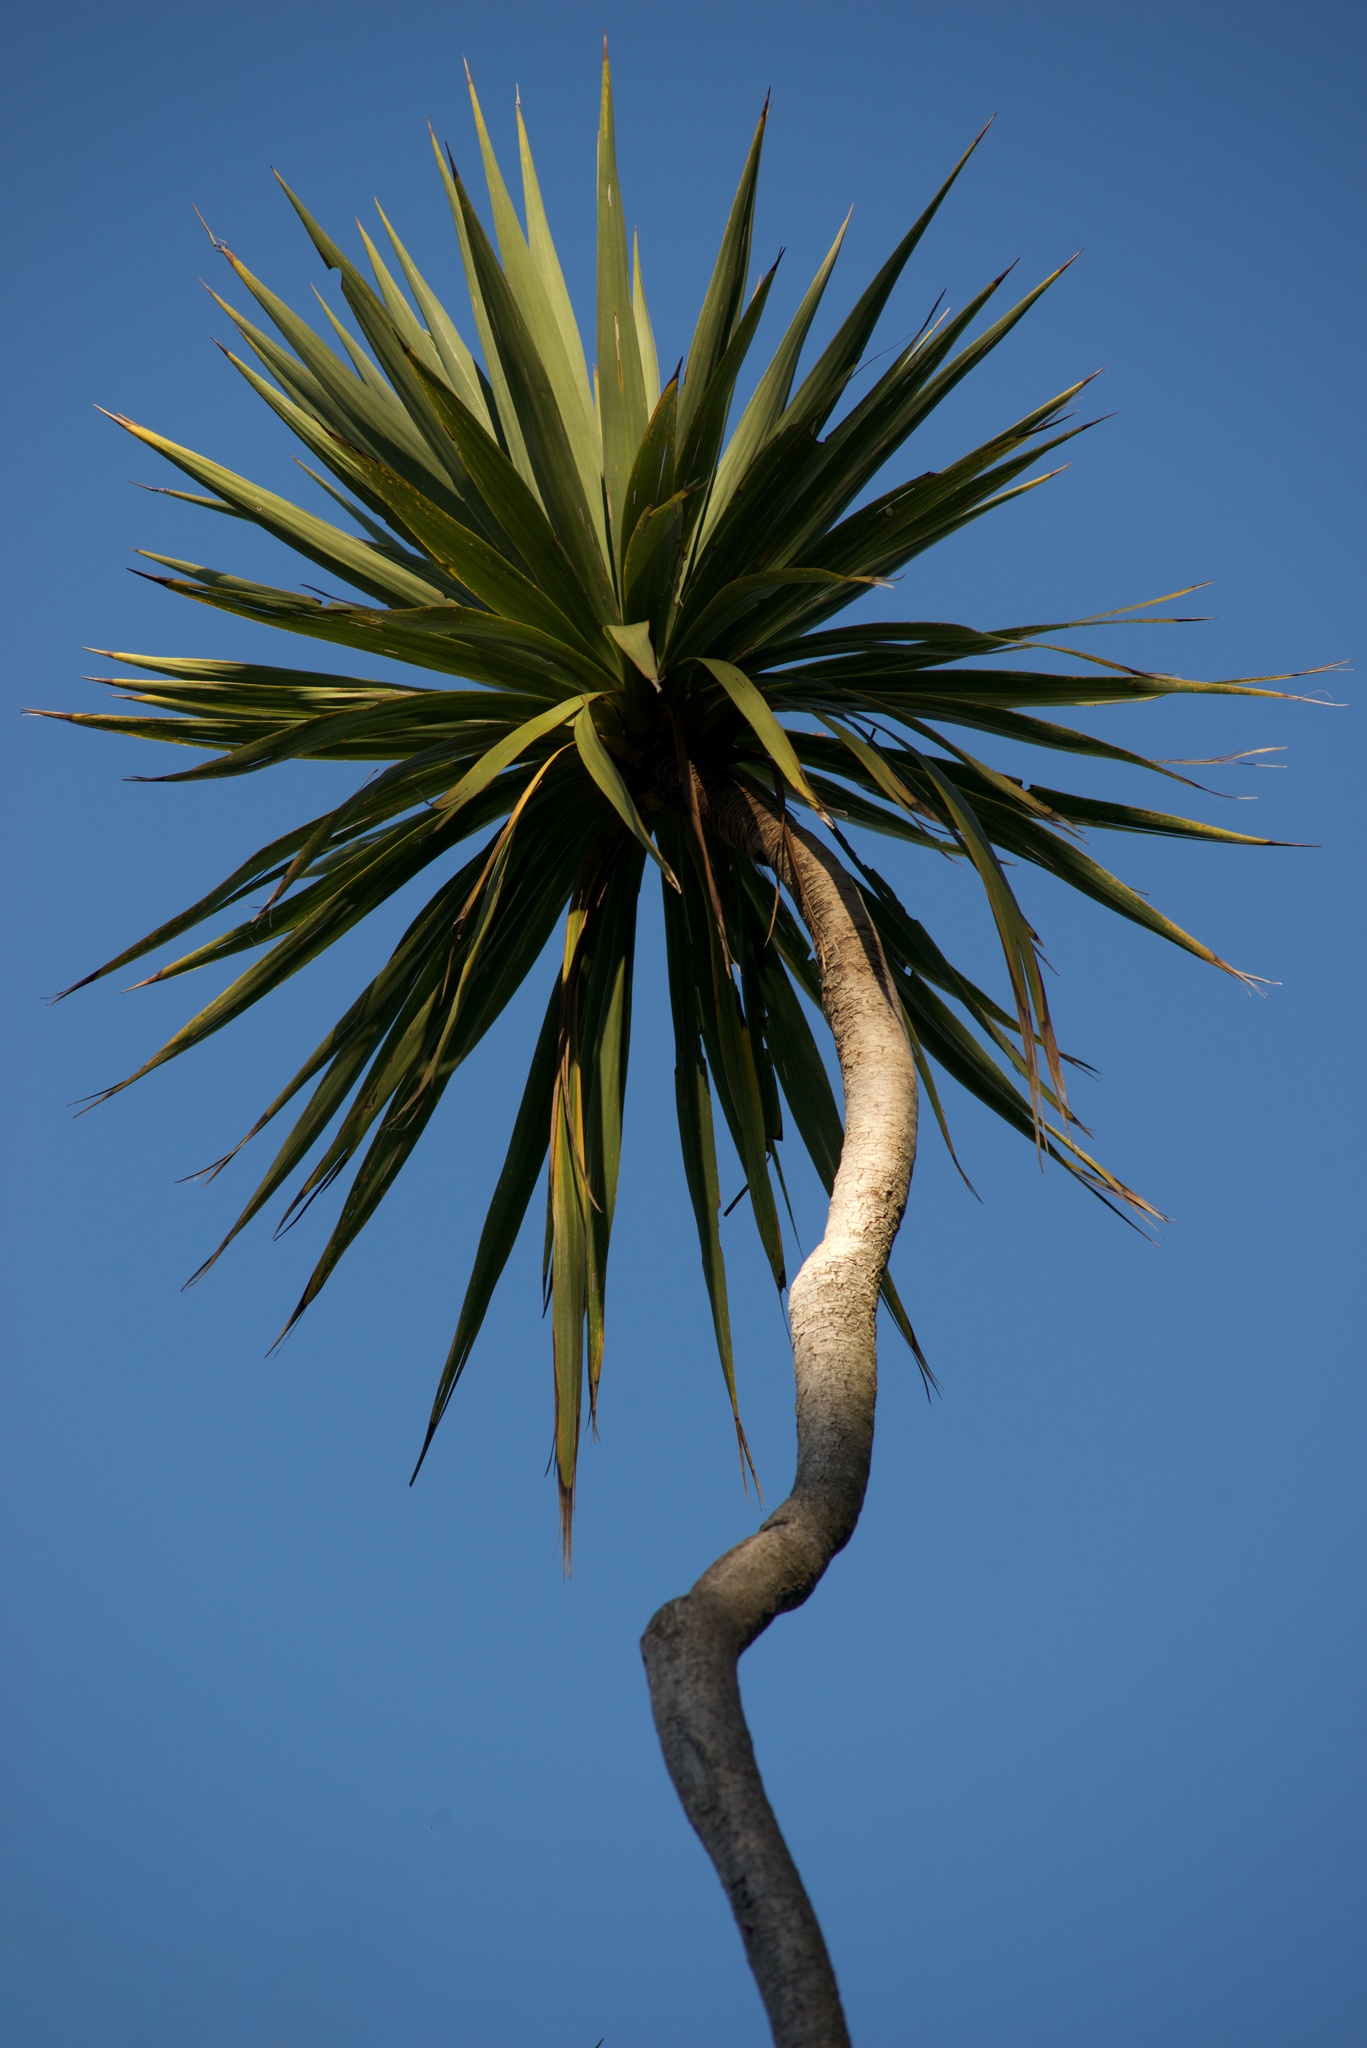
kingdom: Plantae
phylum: Tracheophyta
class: Liliopsida
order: Asparagales
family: Asparagaceae
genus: Cordyline
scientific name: Cordyline australis
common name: Cabbage-palm
